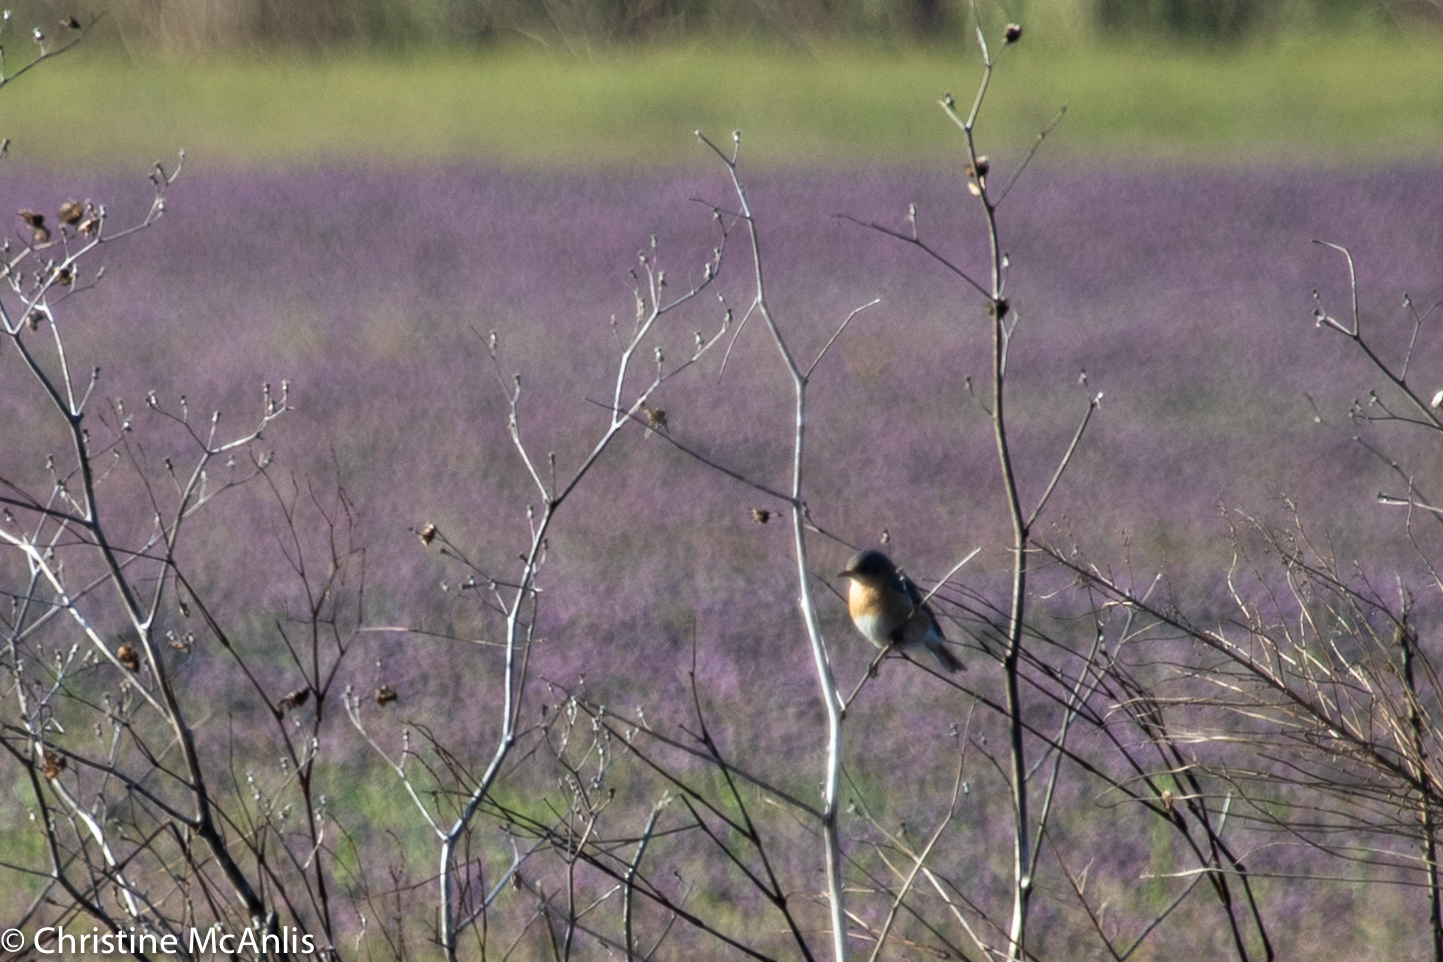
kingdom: Animalia
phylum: Chordata
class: Aves
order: Passeriformes
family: Turdidae
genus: Sialia
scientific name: Sialia sialis
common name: Eastern bluebird
